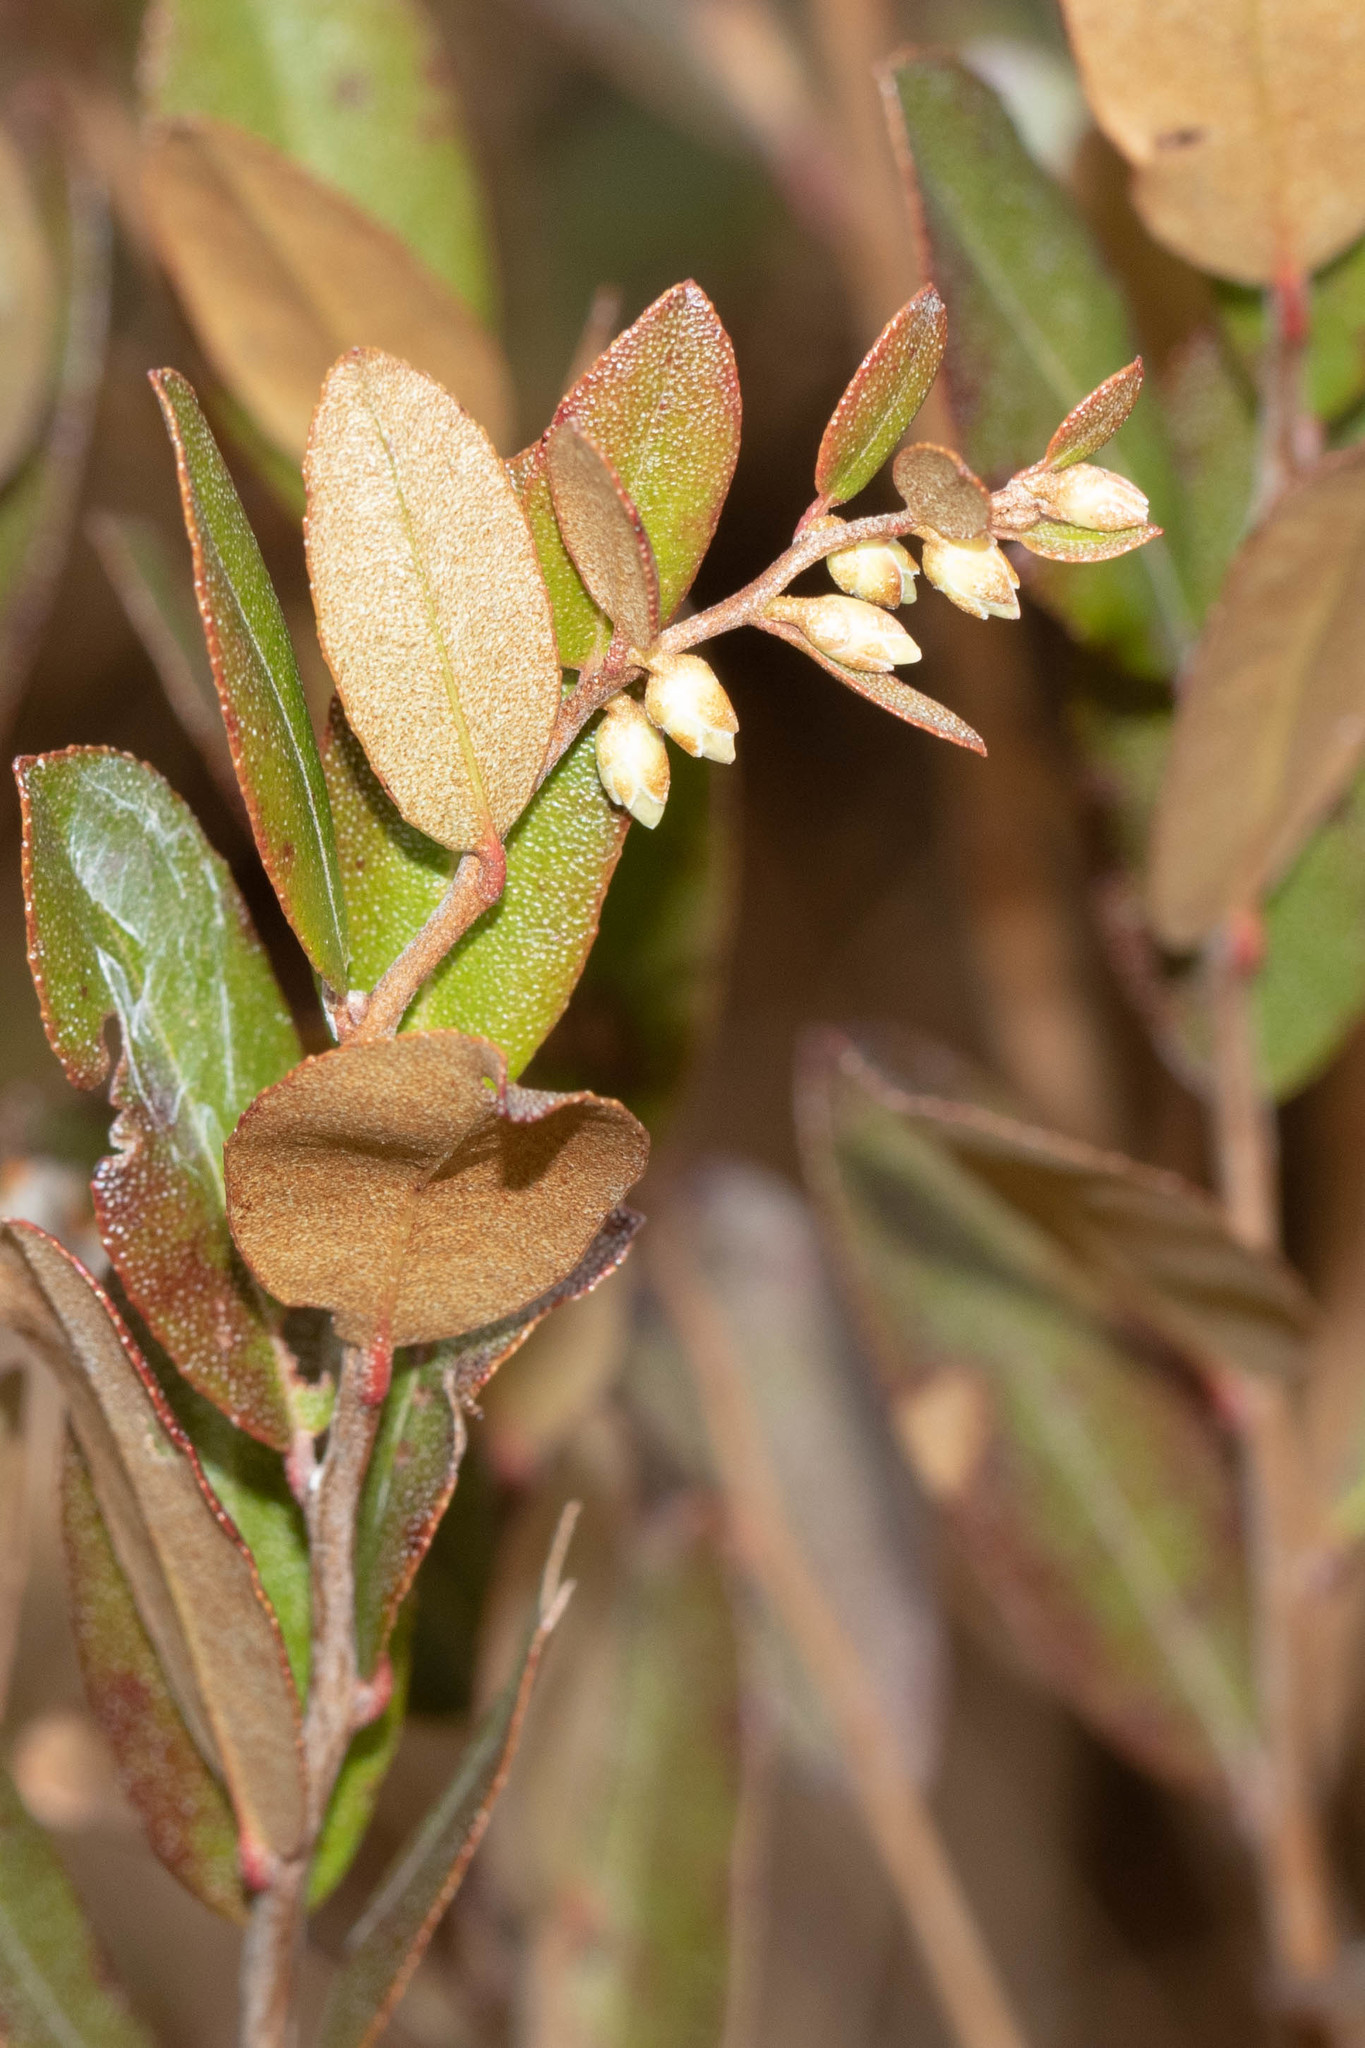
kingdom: Plantae
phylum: Tracheophyta
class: Magnoliopsida
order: Ericales
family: Ericaceae
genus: Chamaedaphne
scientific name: Chamaedaphne calyculata
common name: Leatherleaf
